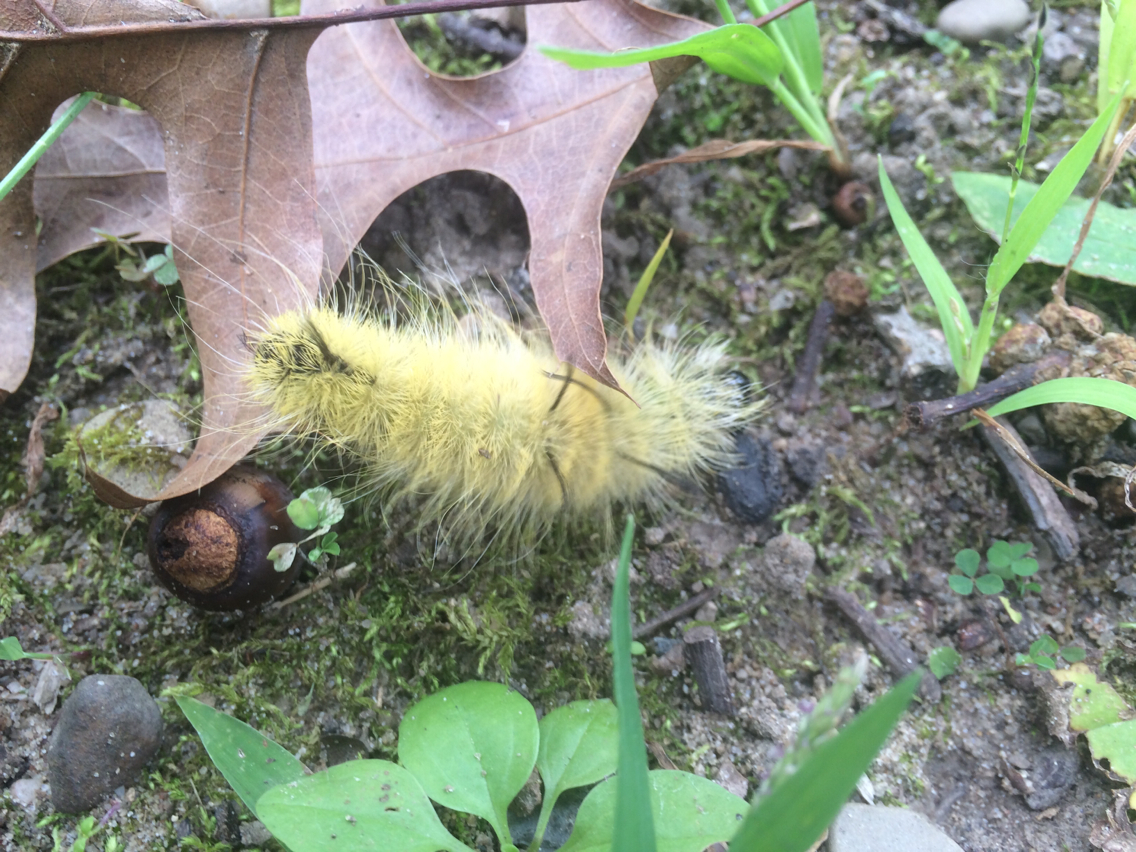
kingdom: Animalia
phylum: Arthropoda
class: Insecta
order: Lepidoptera
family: Noctuidae
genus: Acronicta
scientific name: Acronicta americana
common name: American dagger
